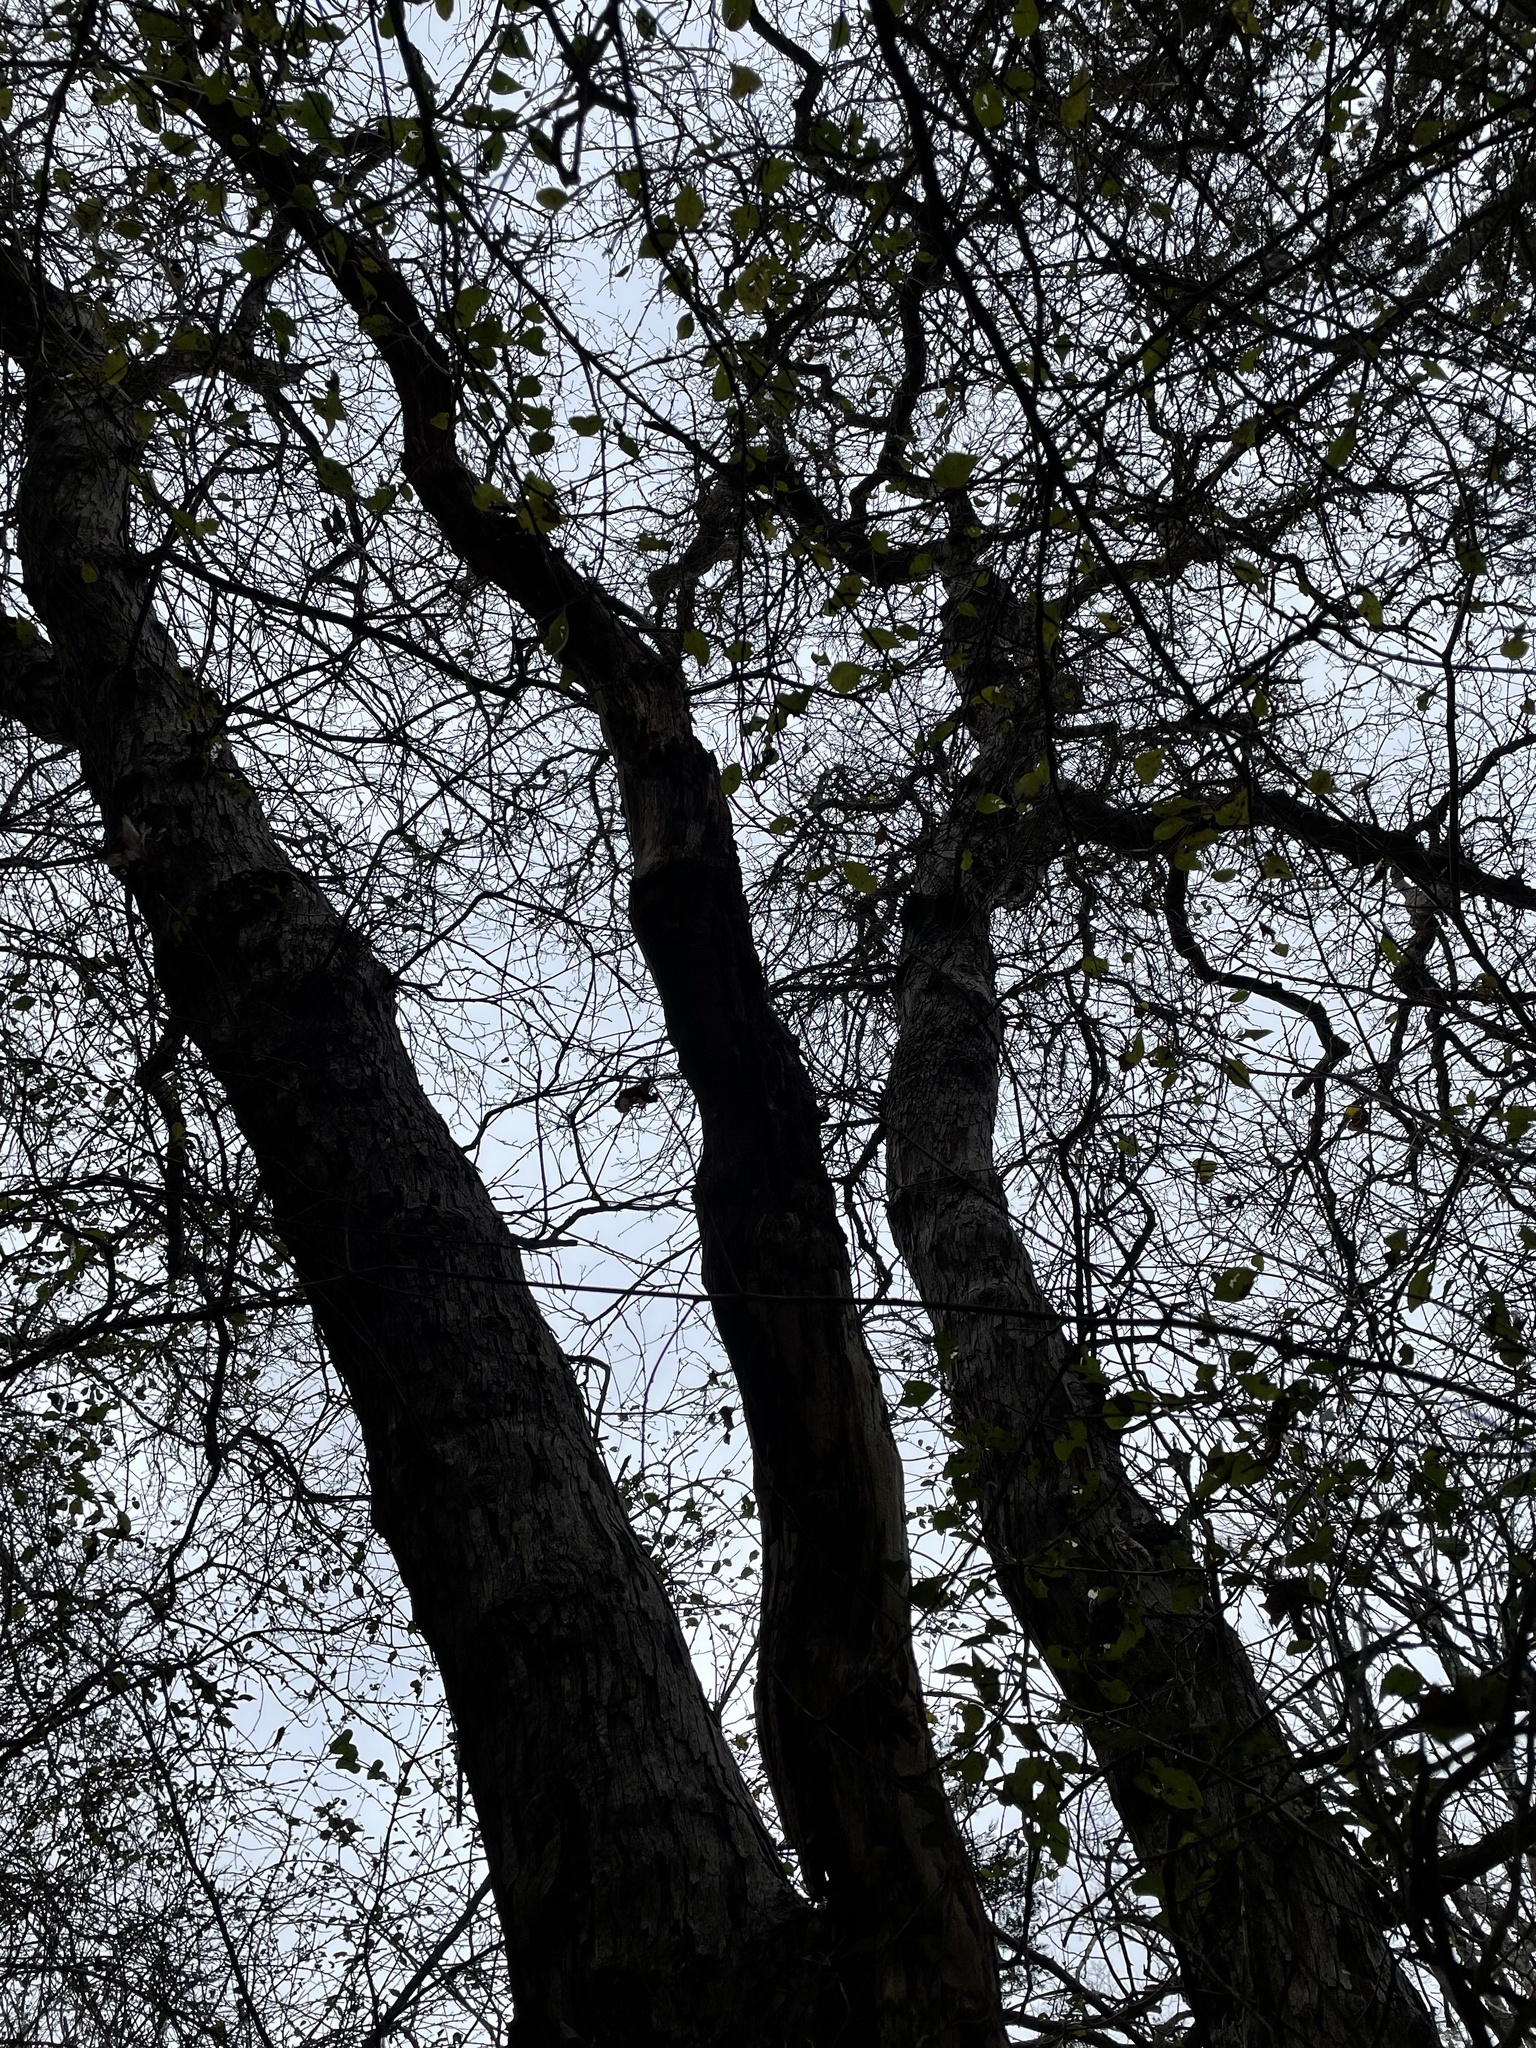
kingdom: Plantae
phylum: Tracheophyta
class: Magnoliopsida
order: Fagales
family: Fagaceae
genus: Quercus
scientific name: Quercus sinuata
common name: Durand oak
